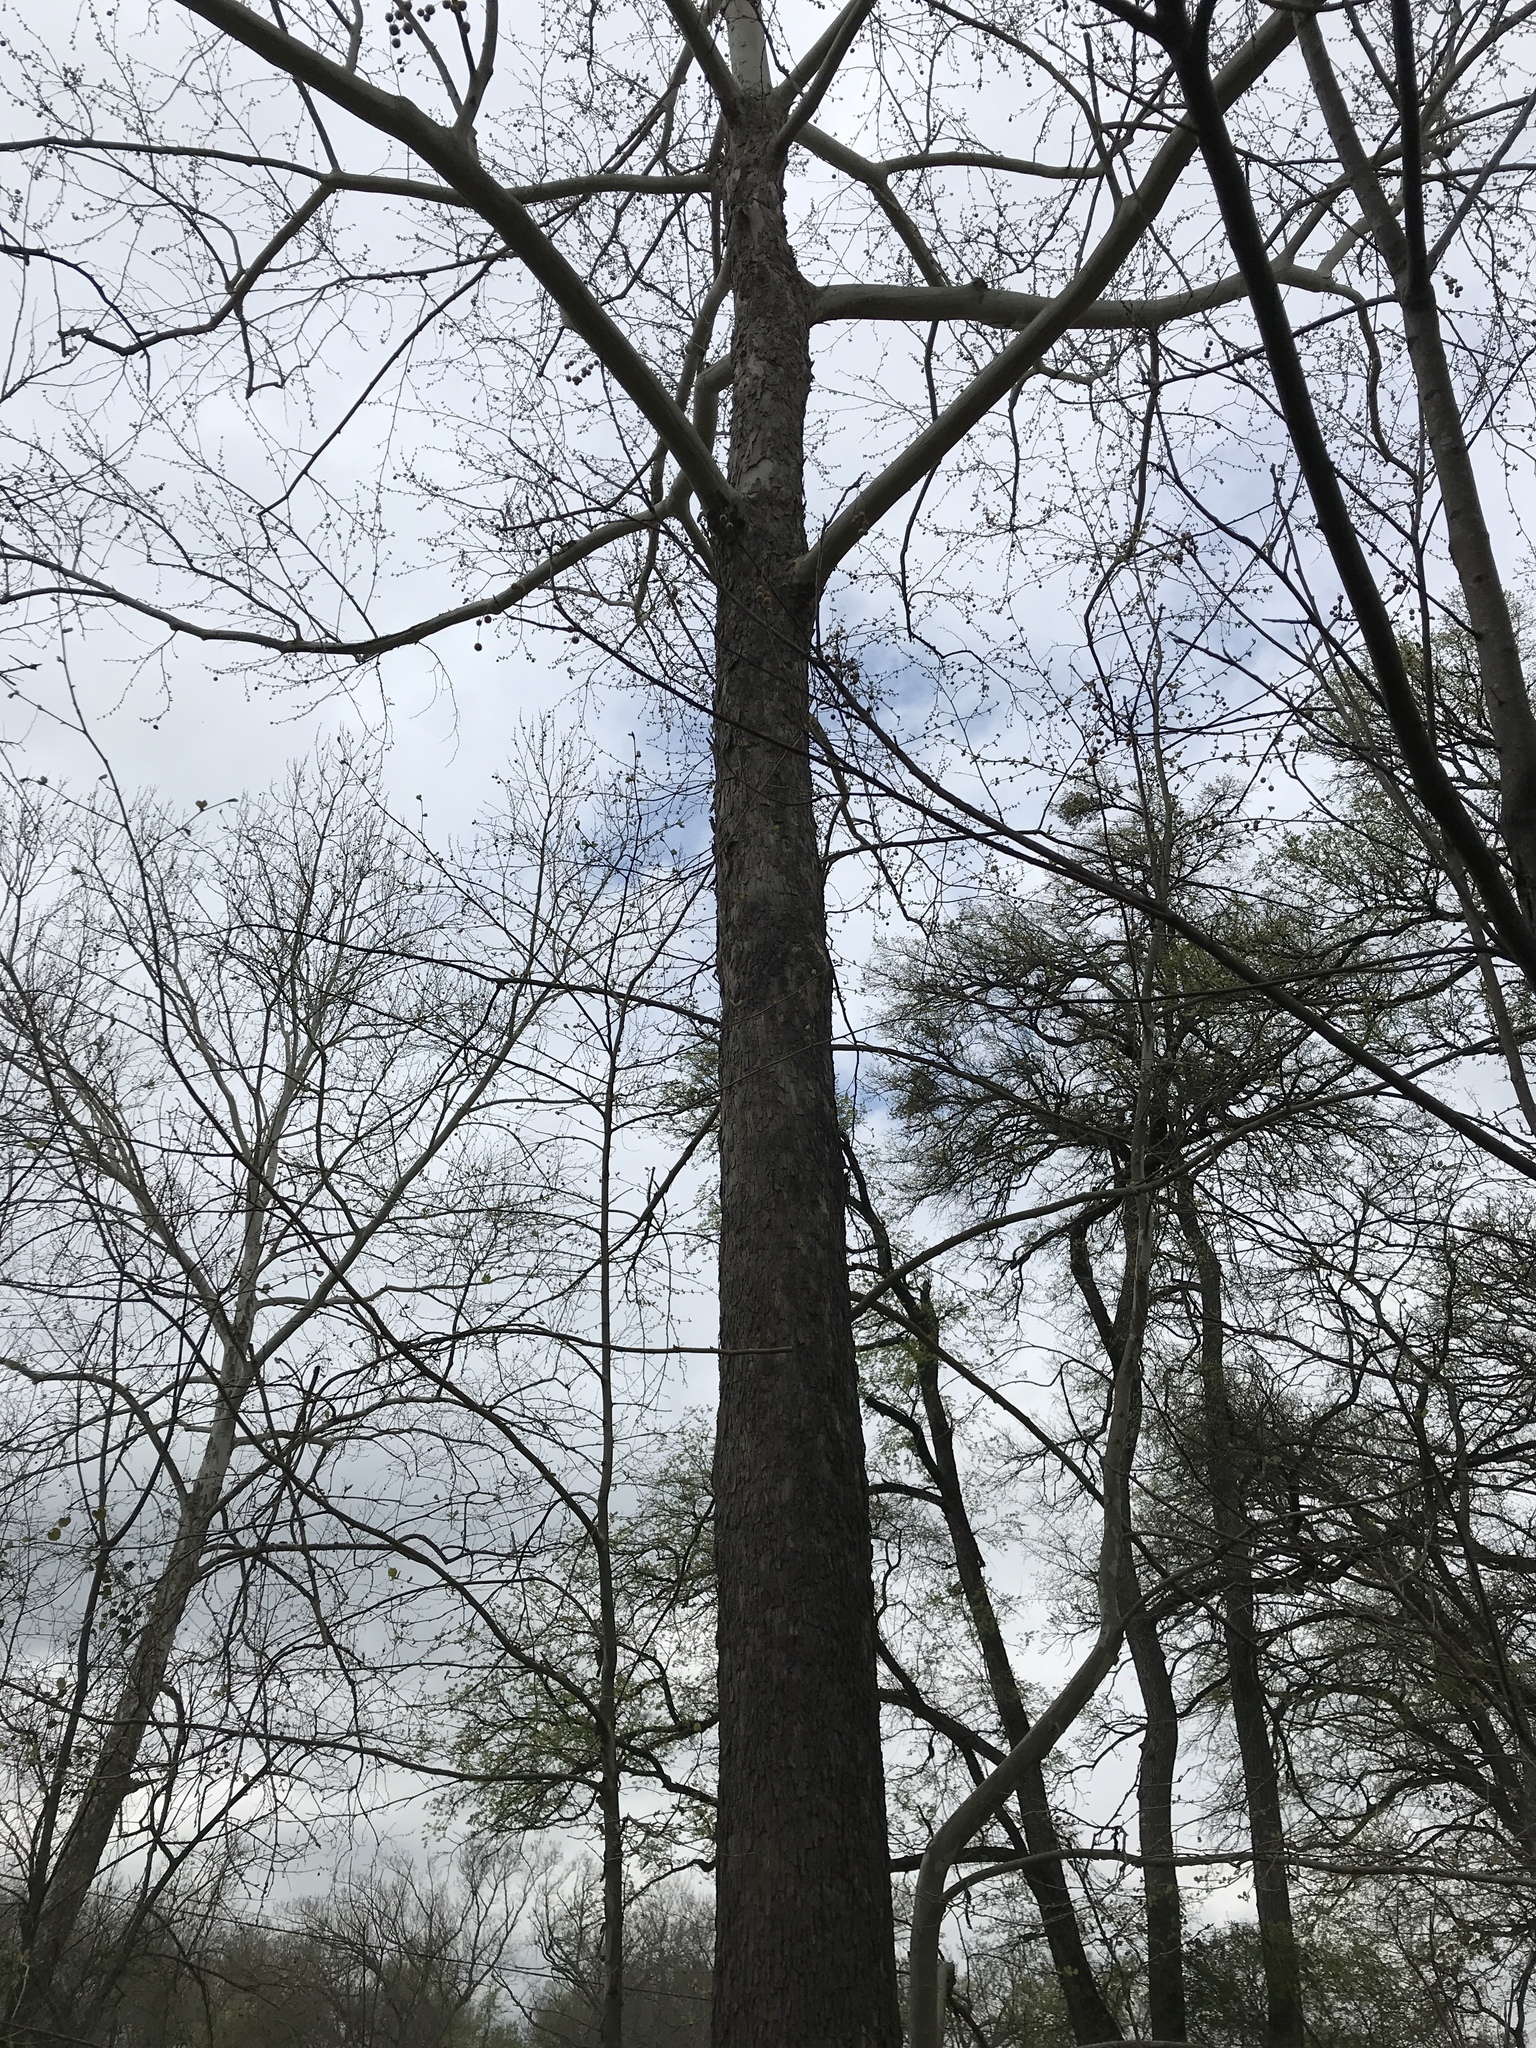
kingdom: Plantae
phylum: Tracheophyta
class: Magnoliopsida
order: Proteales
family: Platanaceae
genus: Platanus
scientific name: Platanus occidentalis
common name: American sycamore
